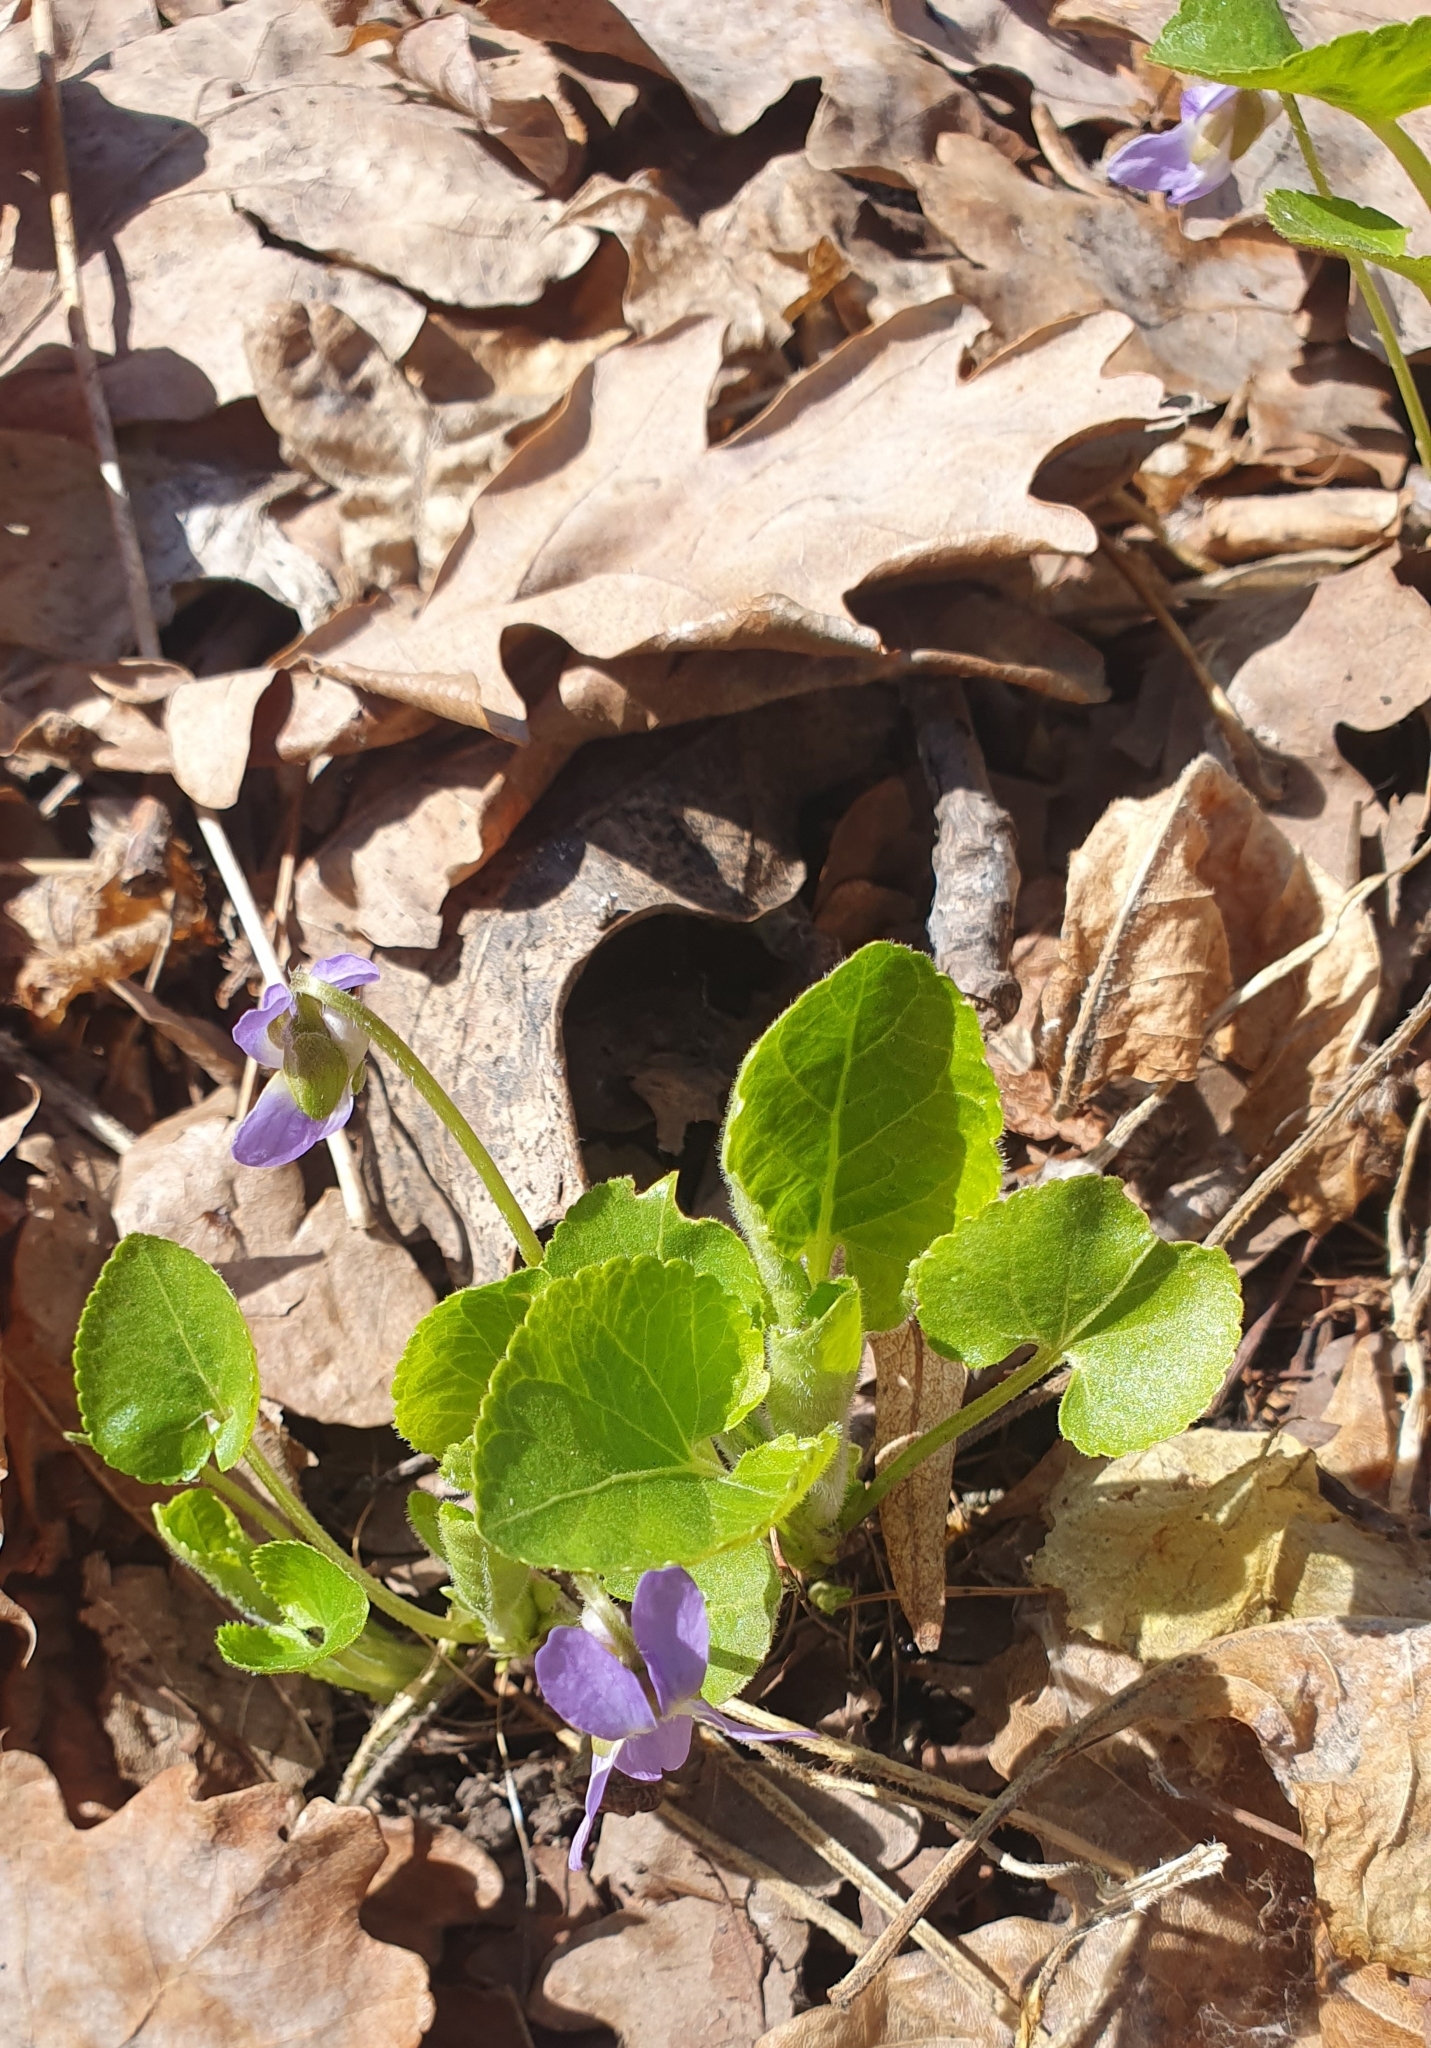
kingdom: Plantae
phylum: Tracheophyta
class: Magnoliopsida
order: Malpighiales
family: Violaceae
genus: Viola
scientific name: Viola collina
